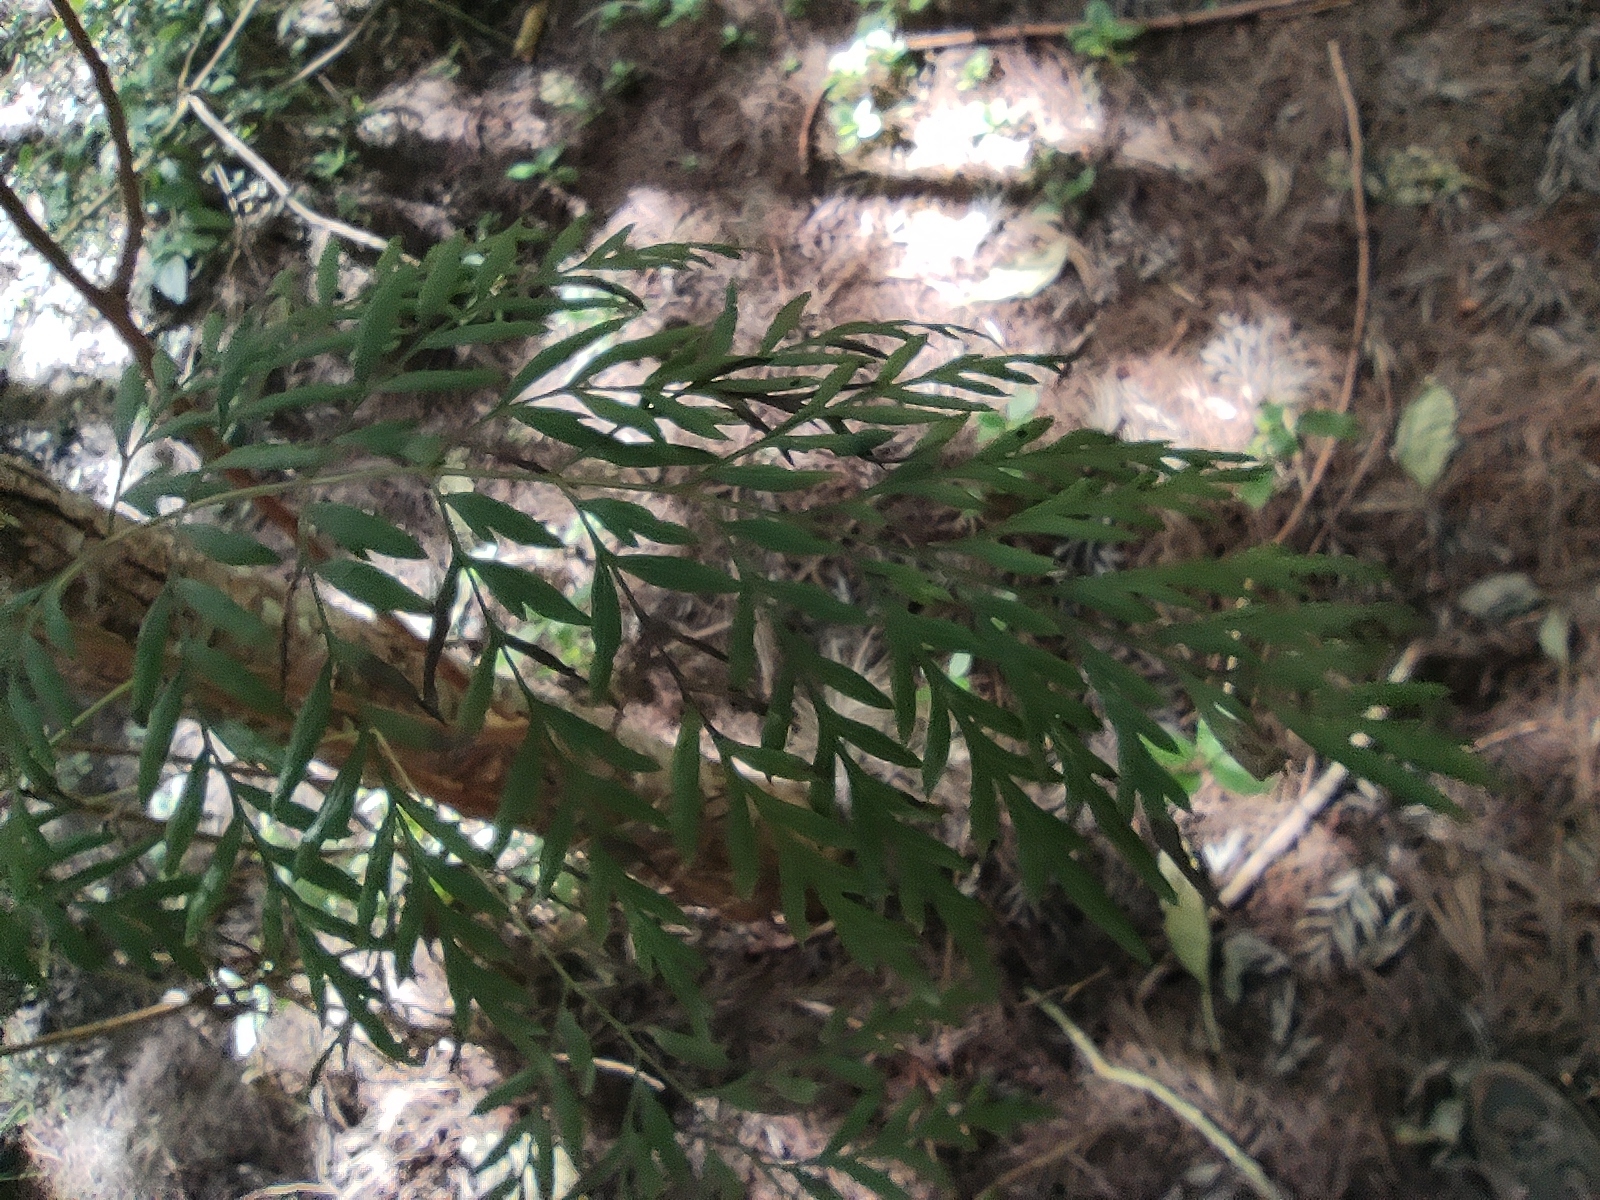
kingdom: Plantae
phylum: Tracheophyta
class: Magnoliopsida
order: Proteales
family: Proteaceae
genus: Grevillea
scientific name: Grevillea robusta
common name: Silkoak
